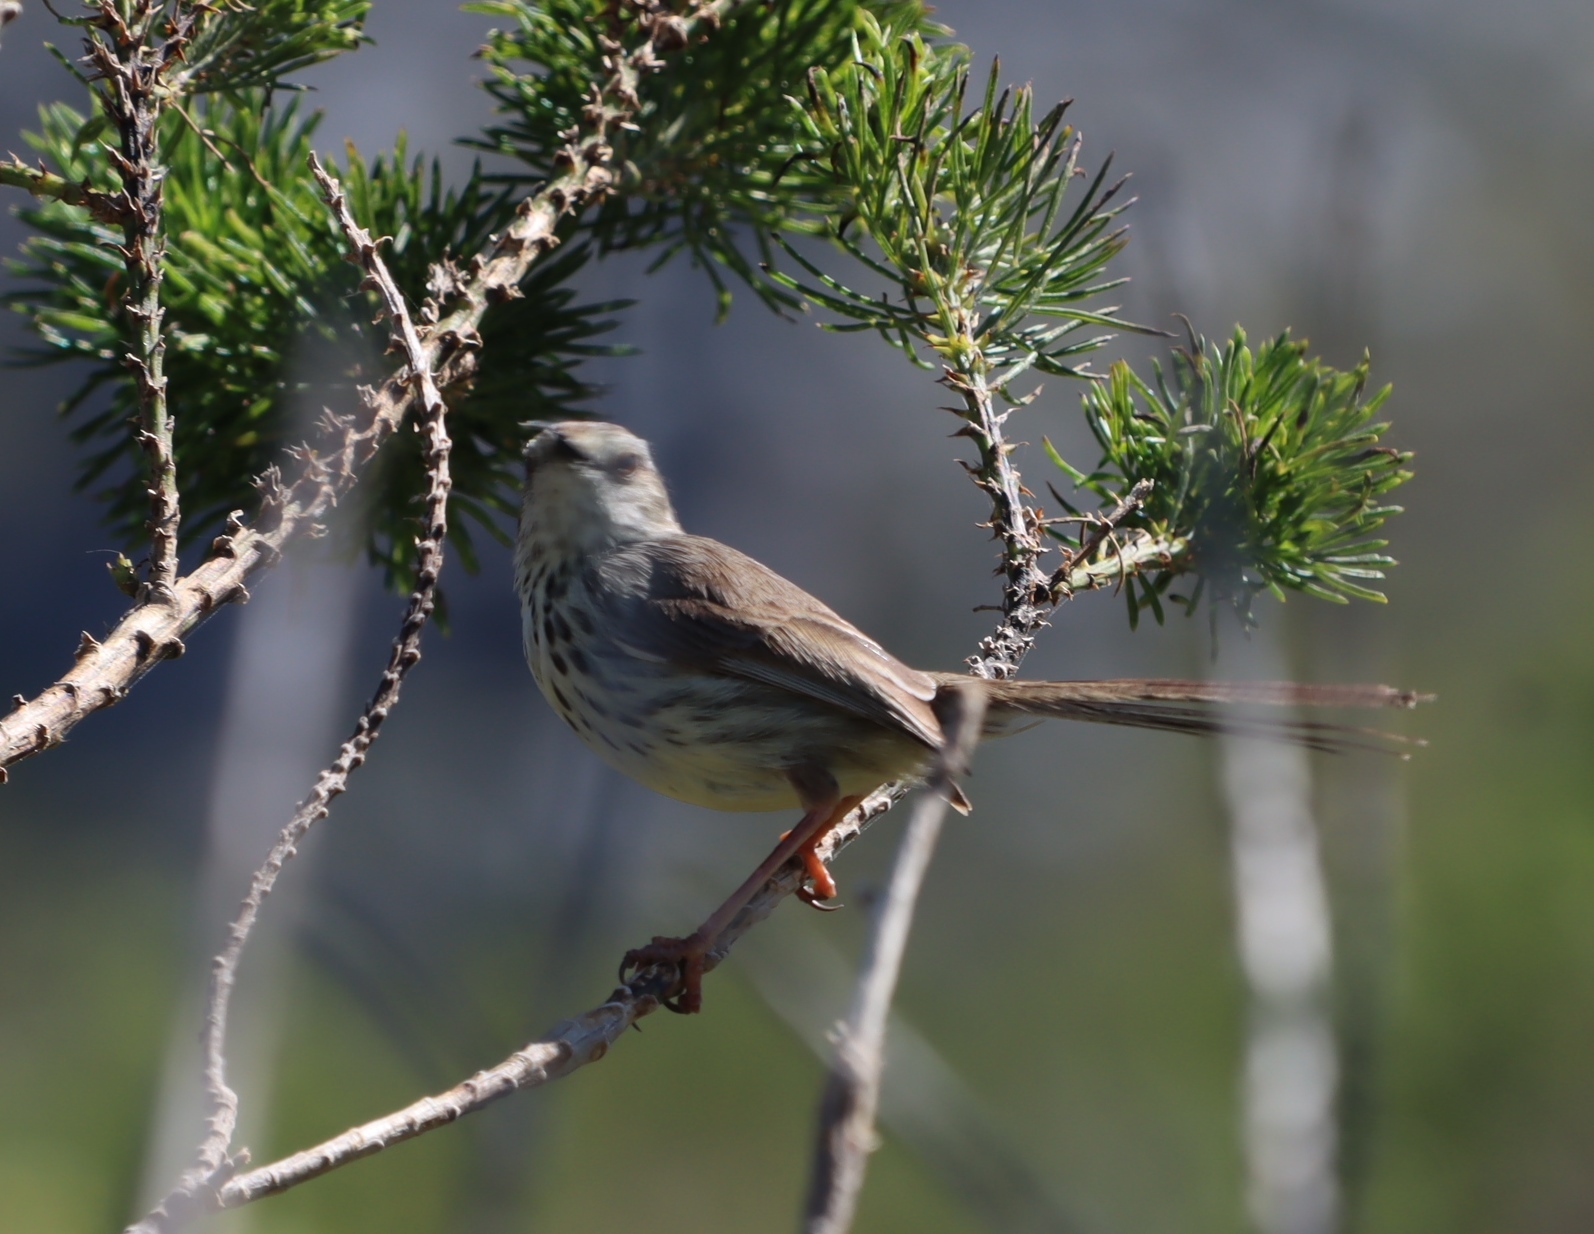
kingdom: Animalia
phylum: Chordata
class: Aves
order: Passeriformes
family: Cisticolidae
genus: Prinia
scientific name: Prinia maculosa
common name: Karoo prinia
